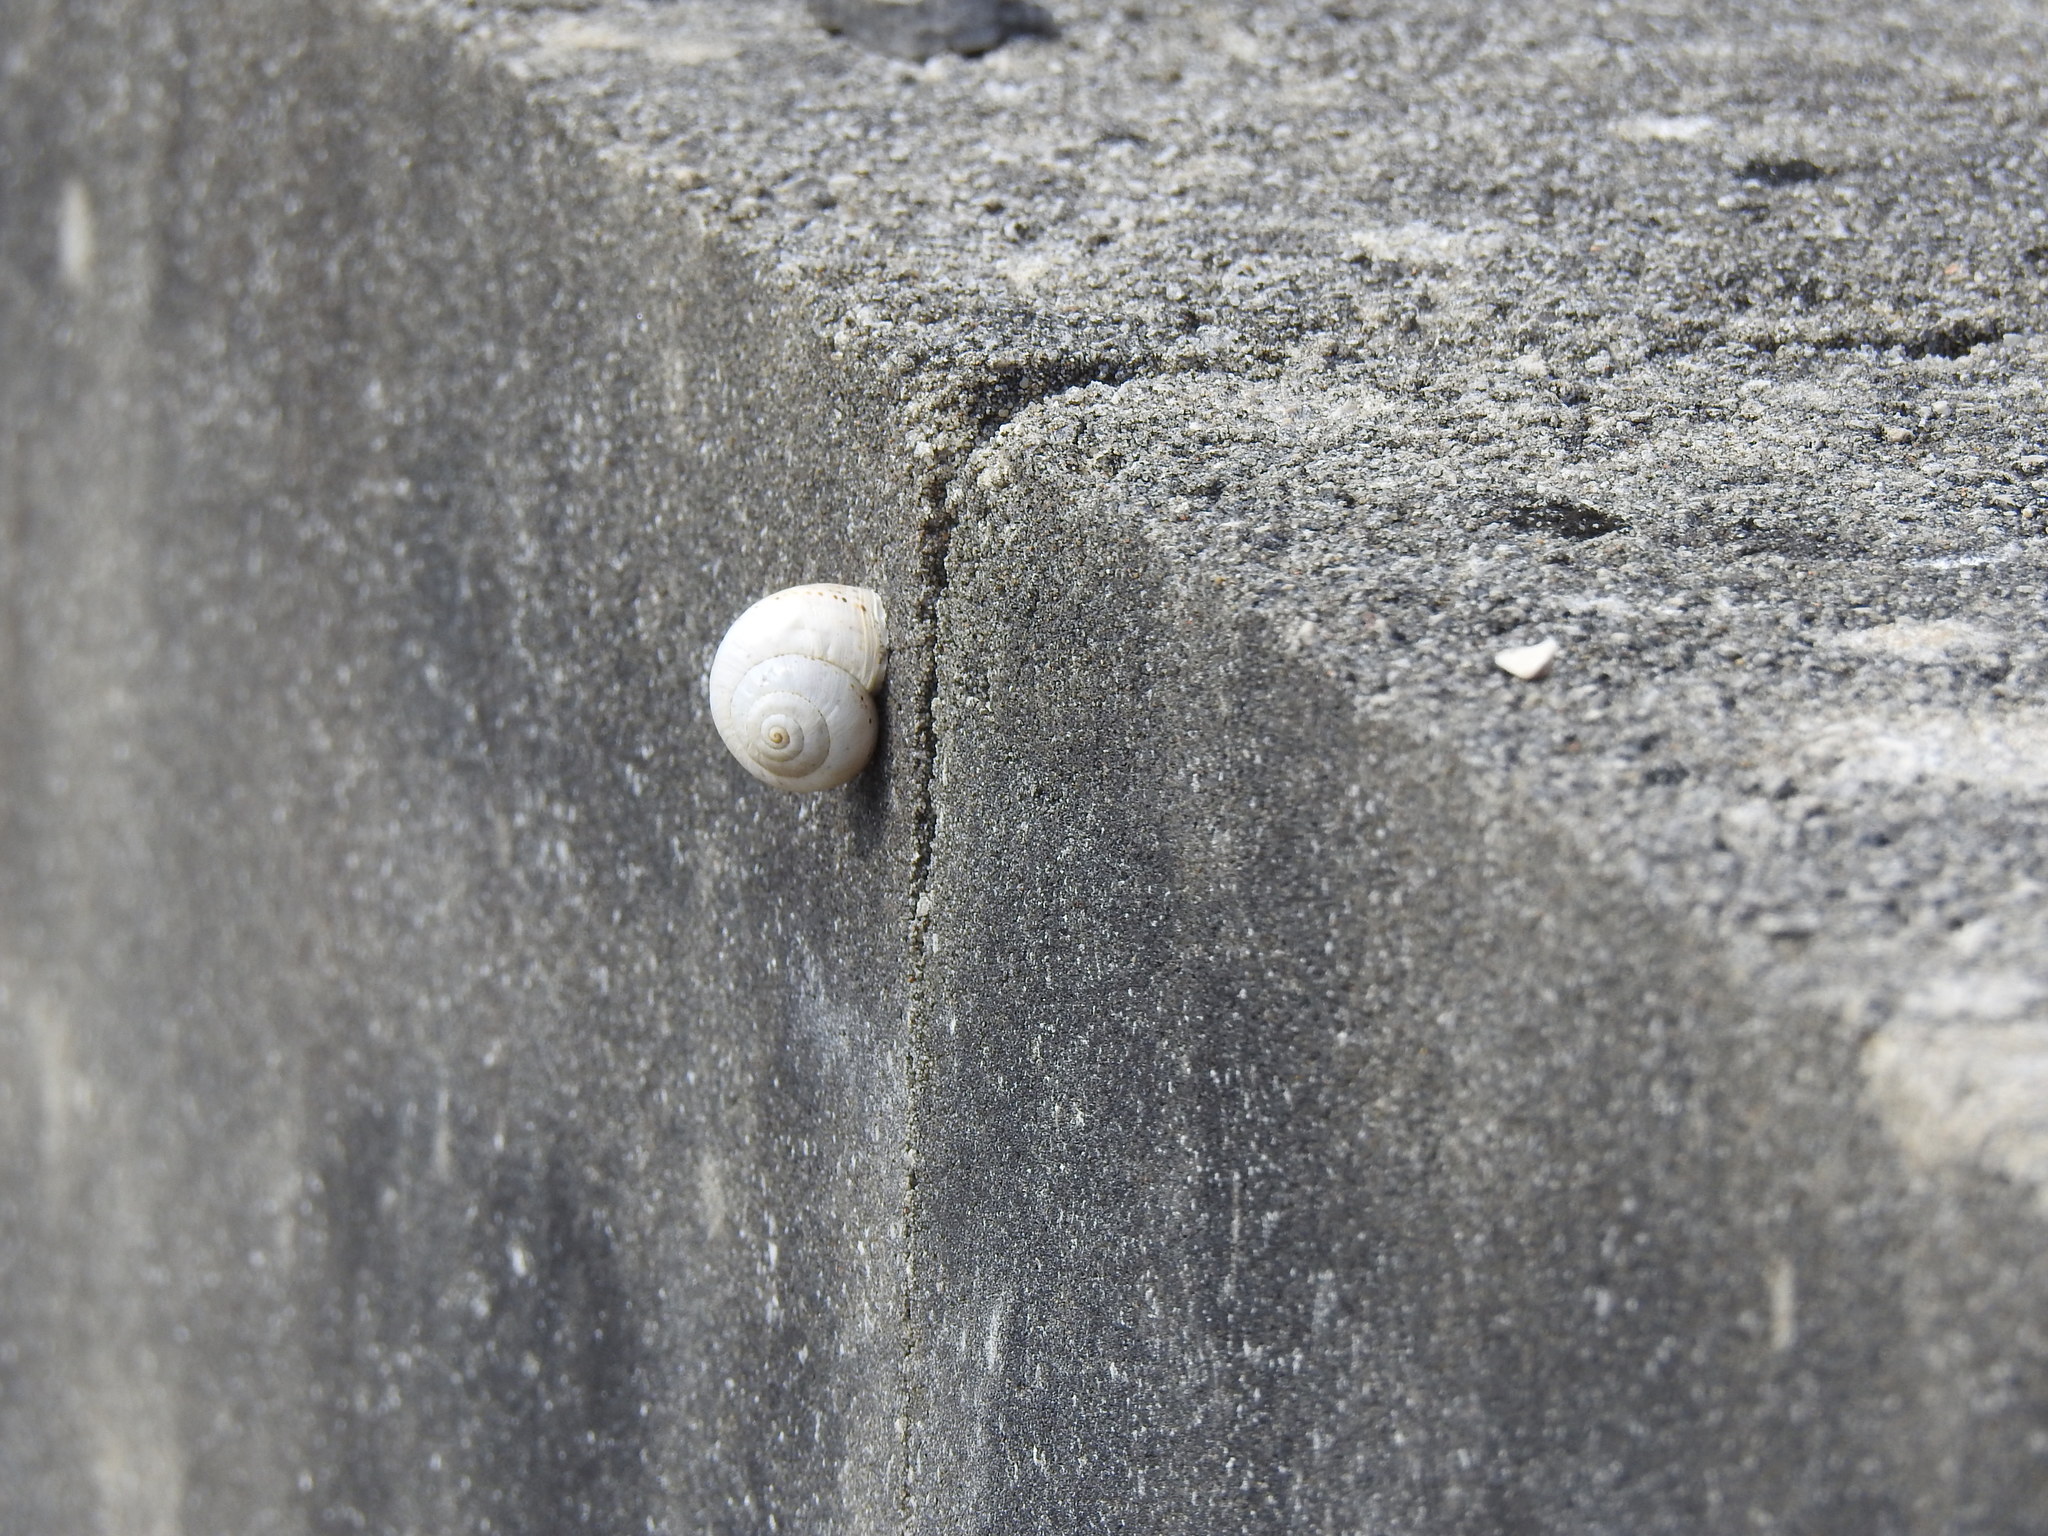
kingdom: Animalia
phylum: Mollusca
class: Gastropoda
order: Stylommatophora
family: Helicidae
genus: Theba
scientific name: Theba pisana
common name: White snail
